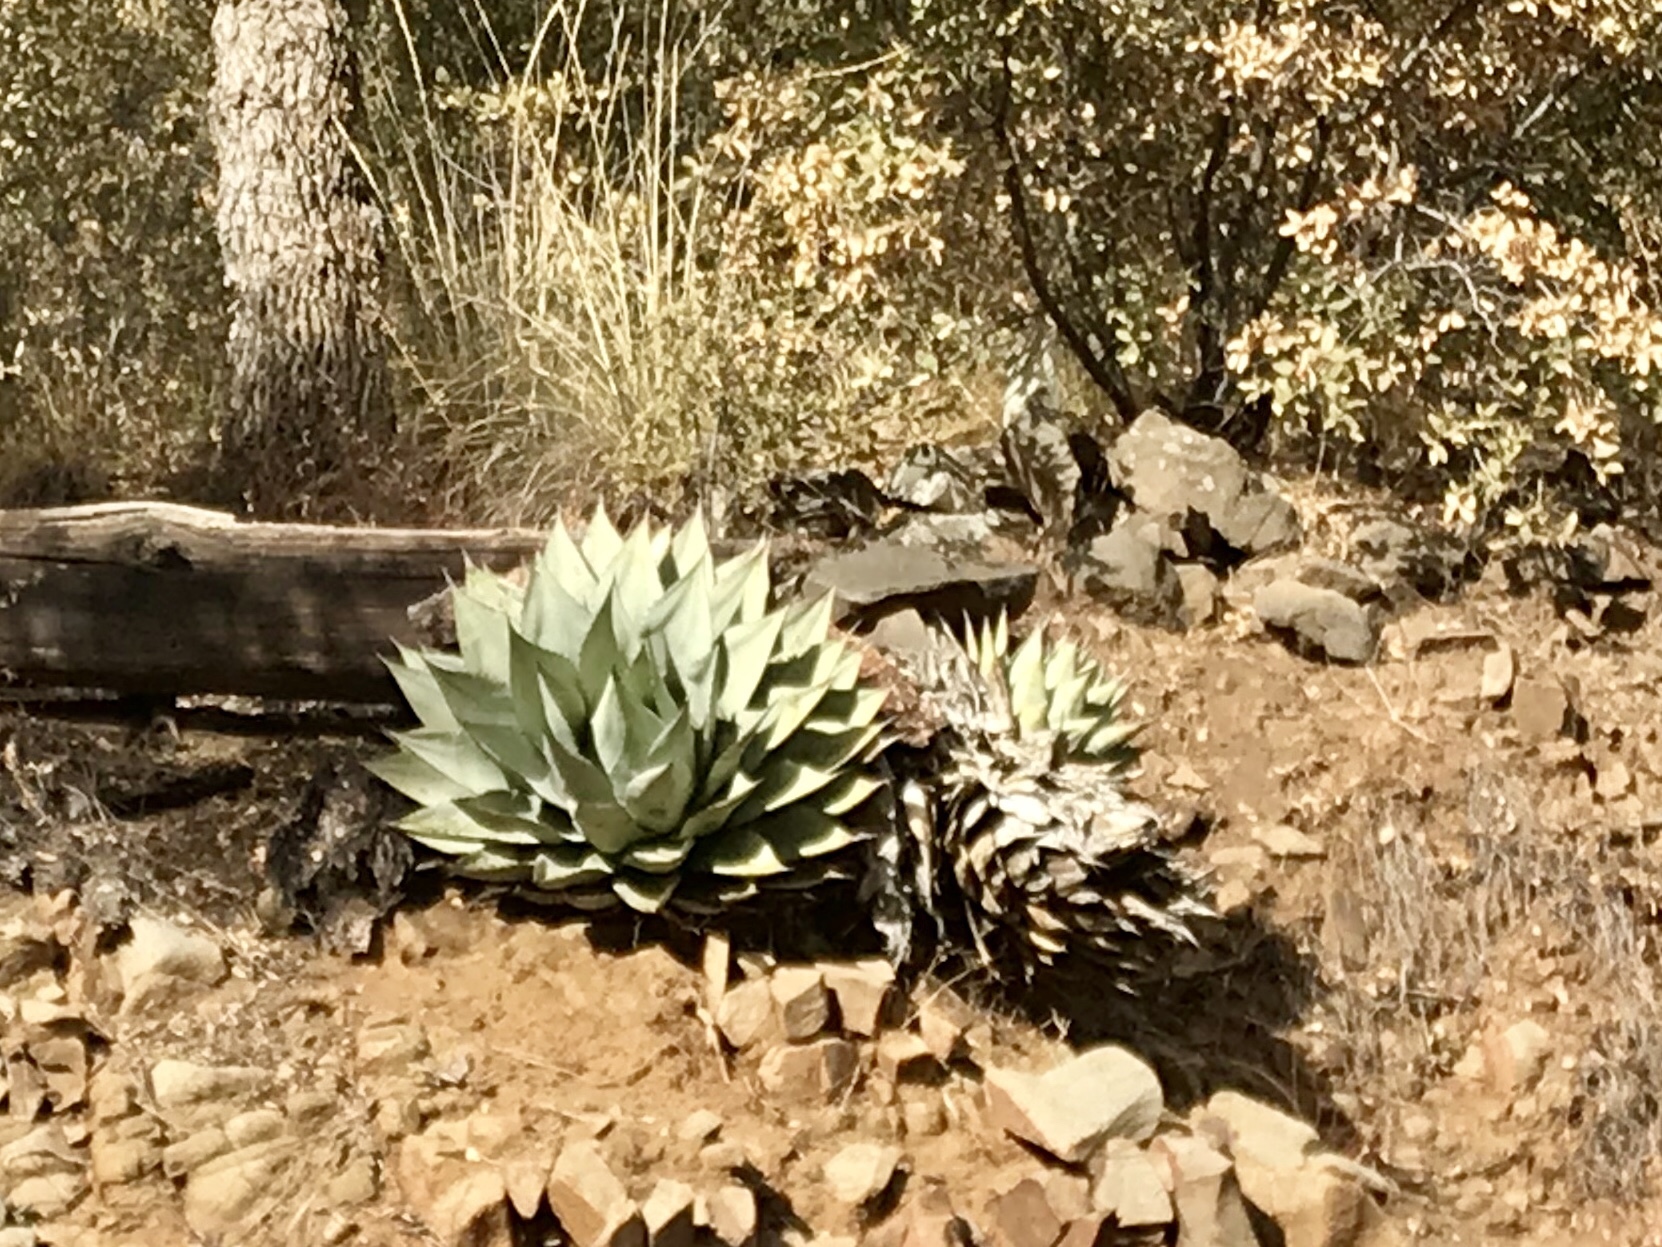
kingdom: Plantae
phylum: Tracheophyta
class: Liliopsida
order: Asparagales
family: Asparagaceae
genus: Agave
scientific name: Agave parryi
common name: Parry's agave
